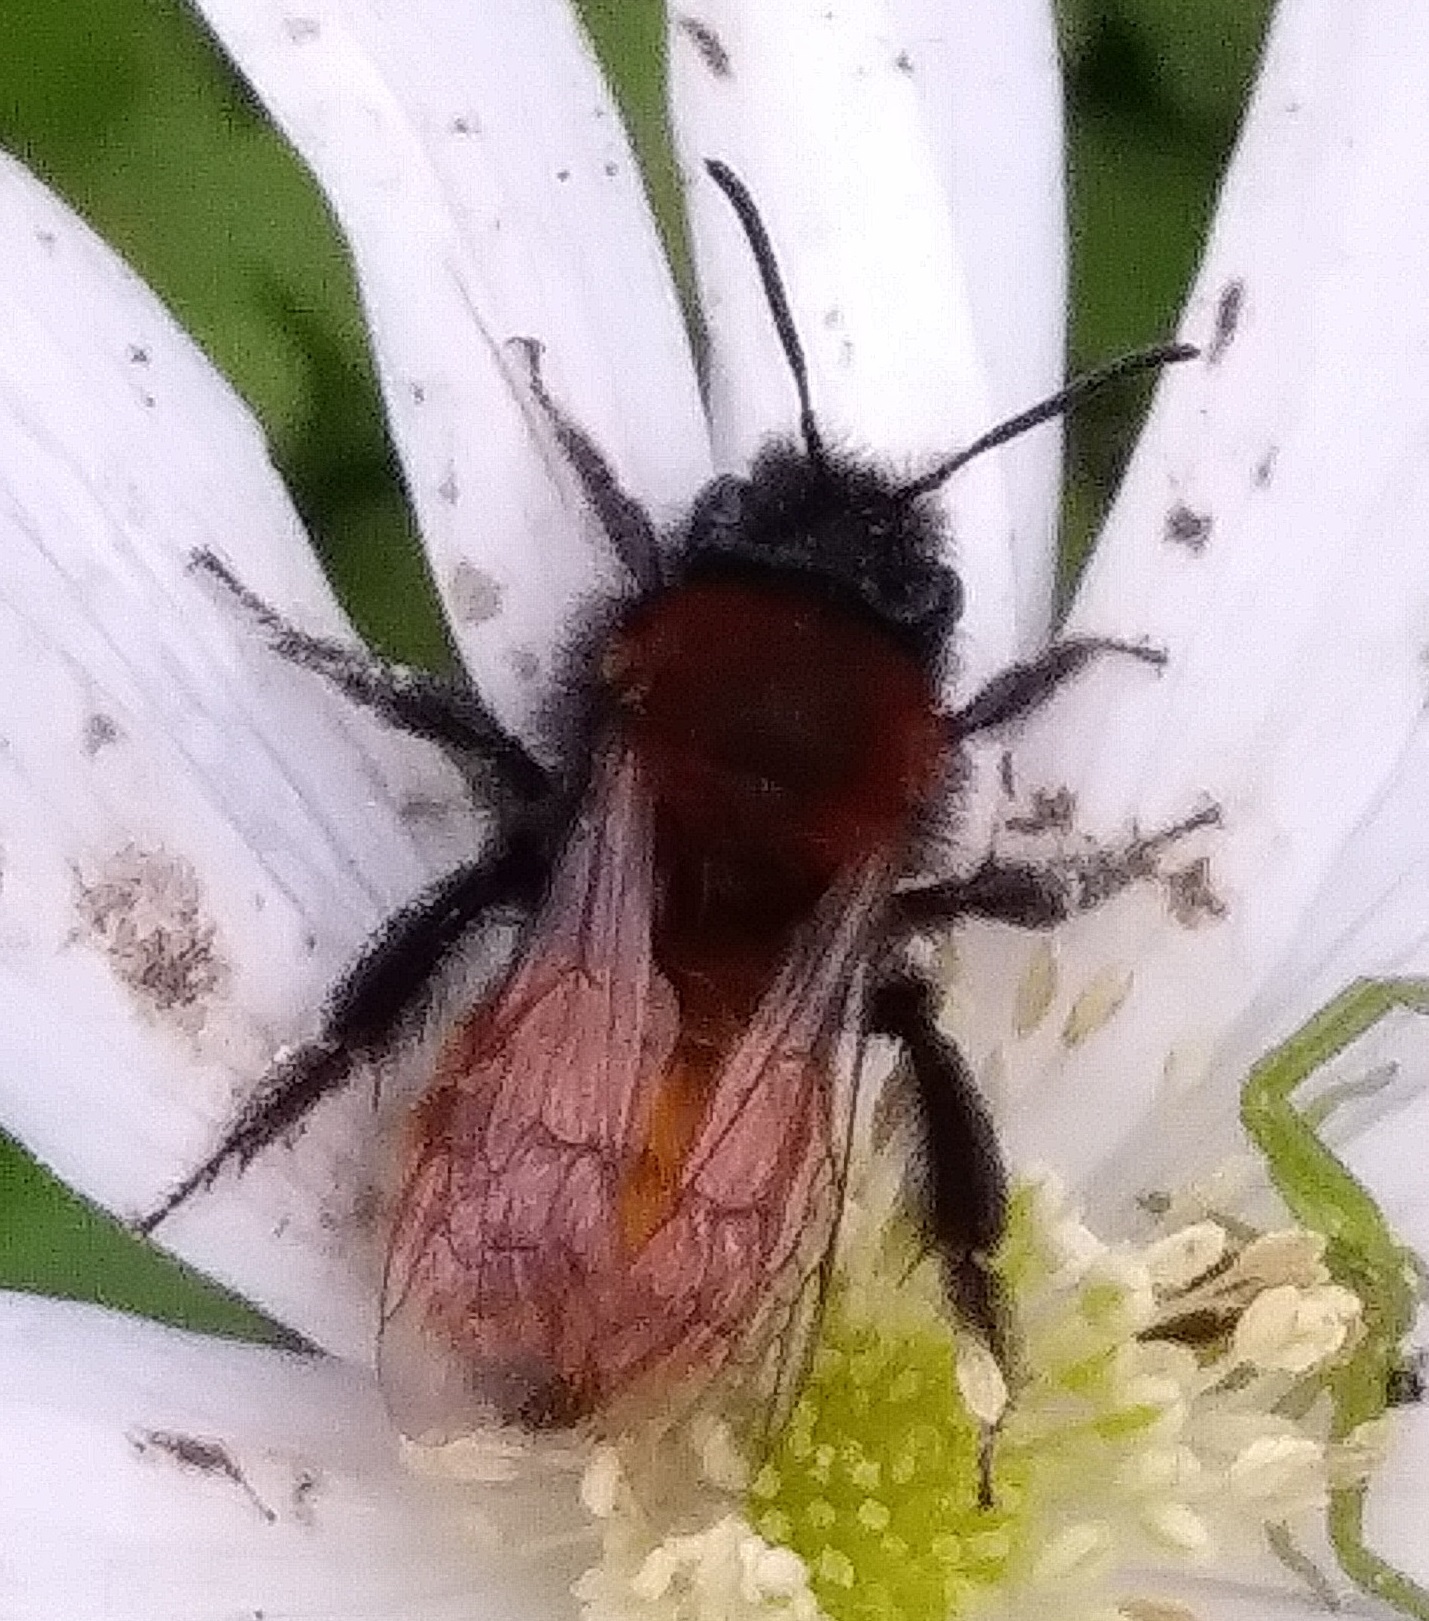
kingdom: Animalia
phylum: Arthropoda
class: Insecta
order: Hymenoptera
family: Andrenidae
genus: Andrena
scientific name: Andrena fulva
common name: Tawny mining bee
